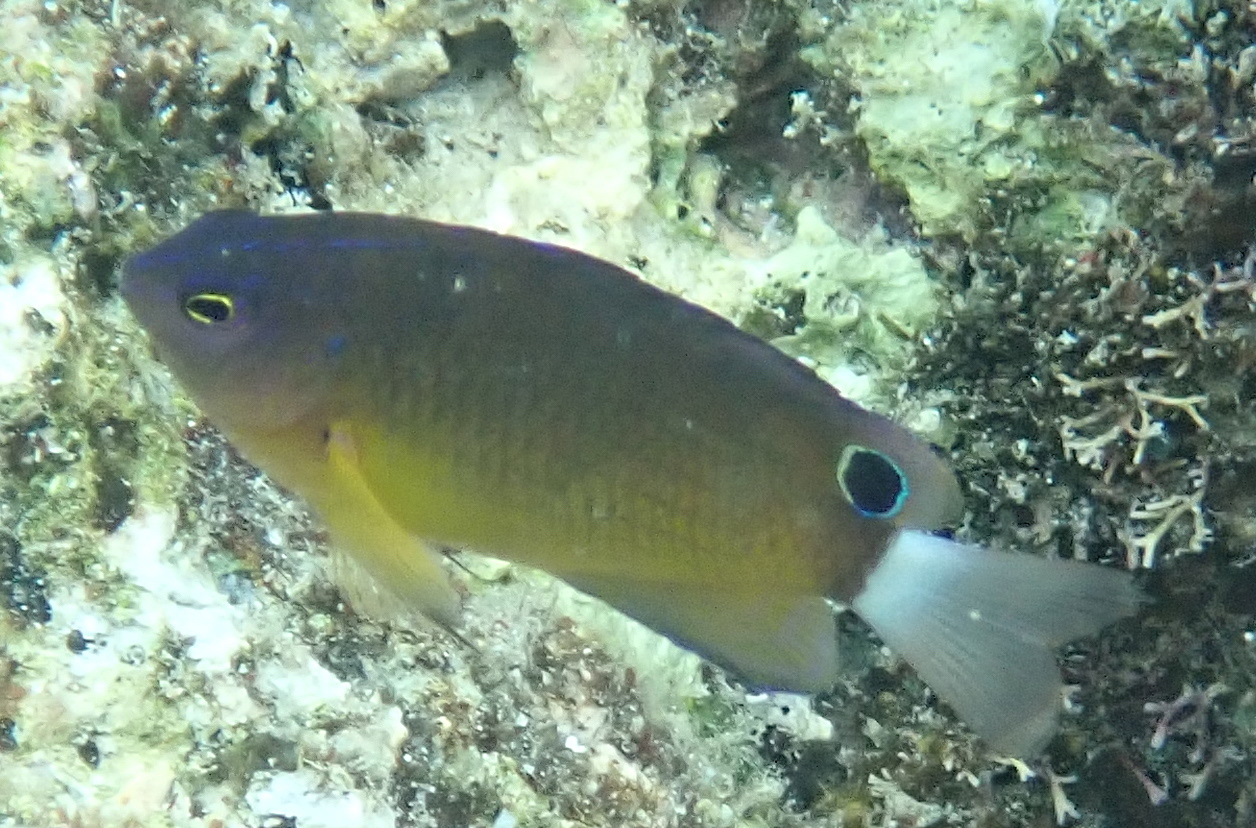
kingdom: Animalia
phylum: Chordata
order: Perciformes
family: Pomacentridae
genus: Pomacentrus
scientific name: Pomacentrus bankanensis
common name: Speckled damsel
